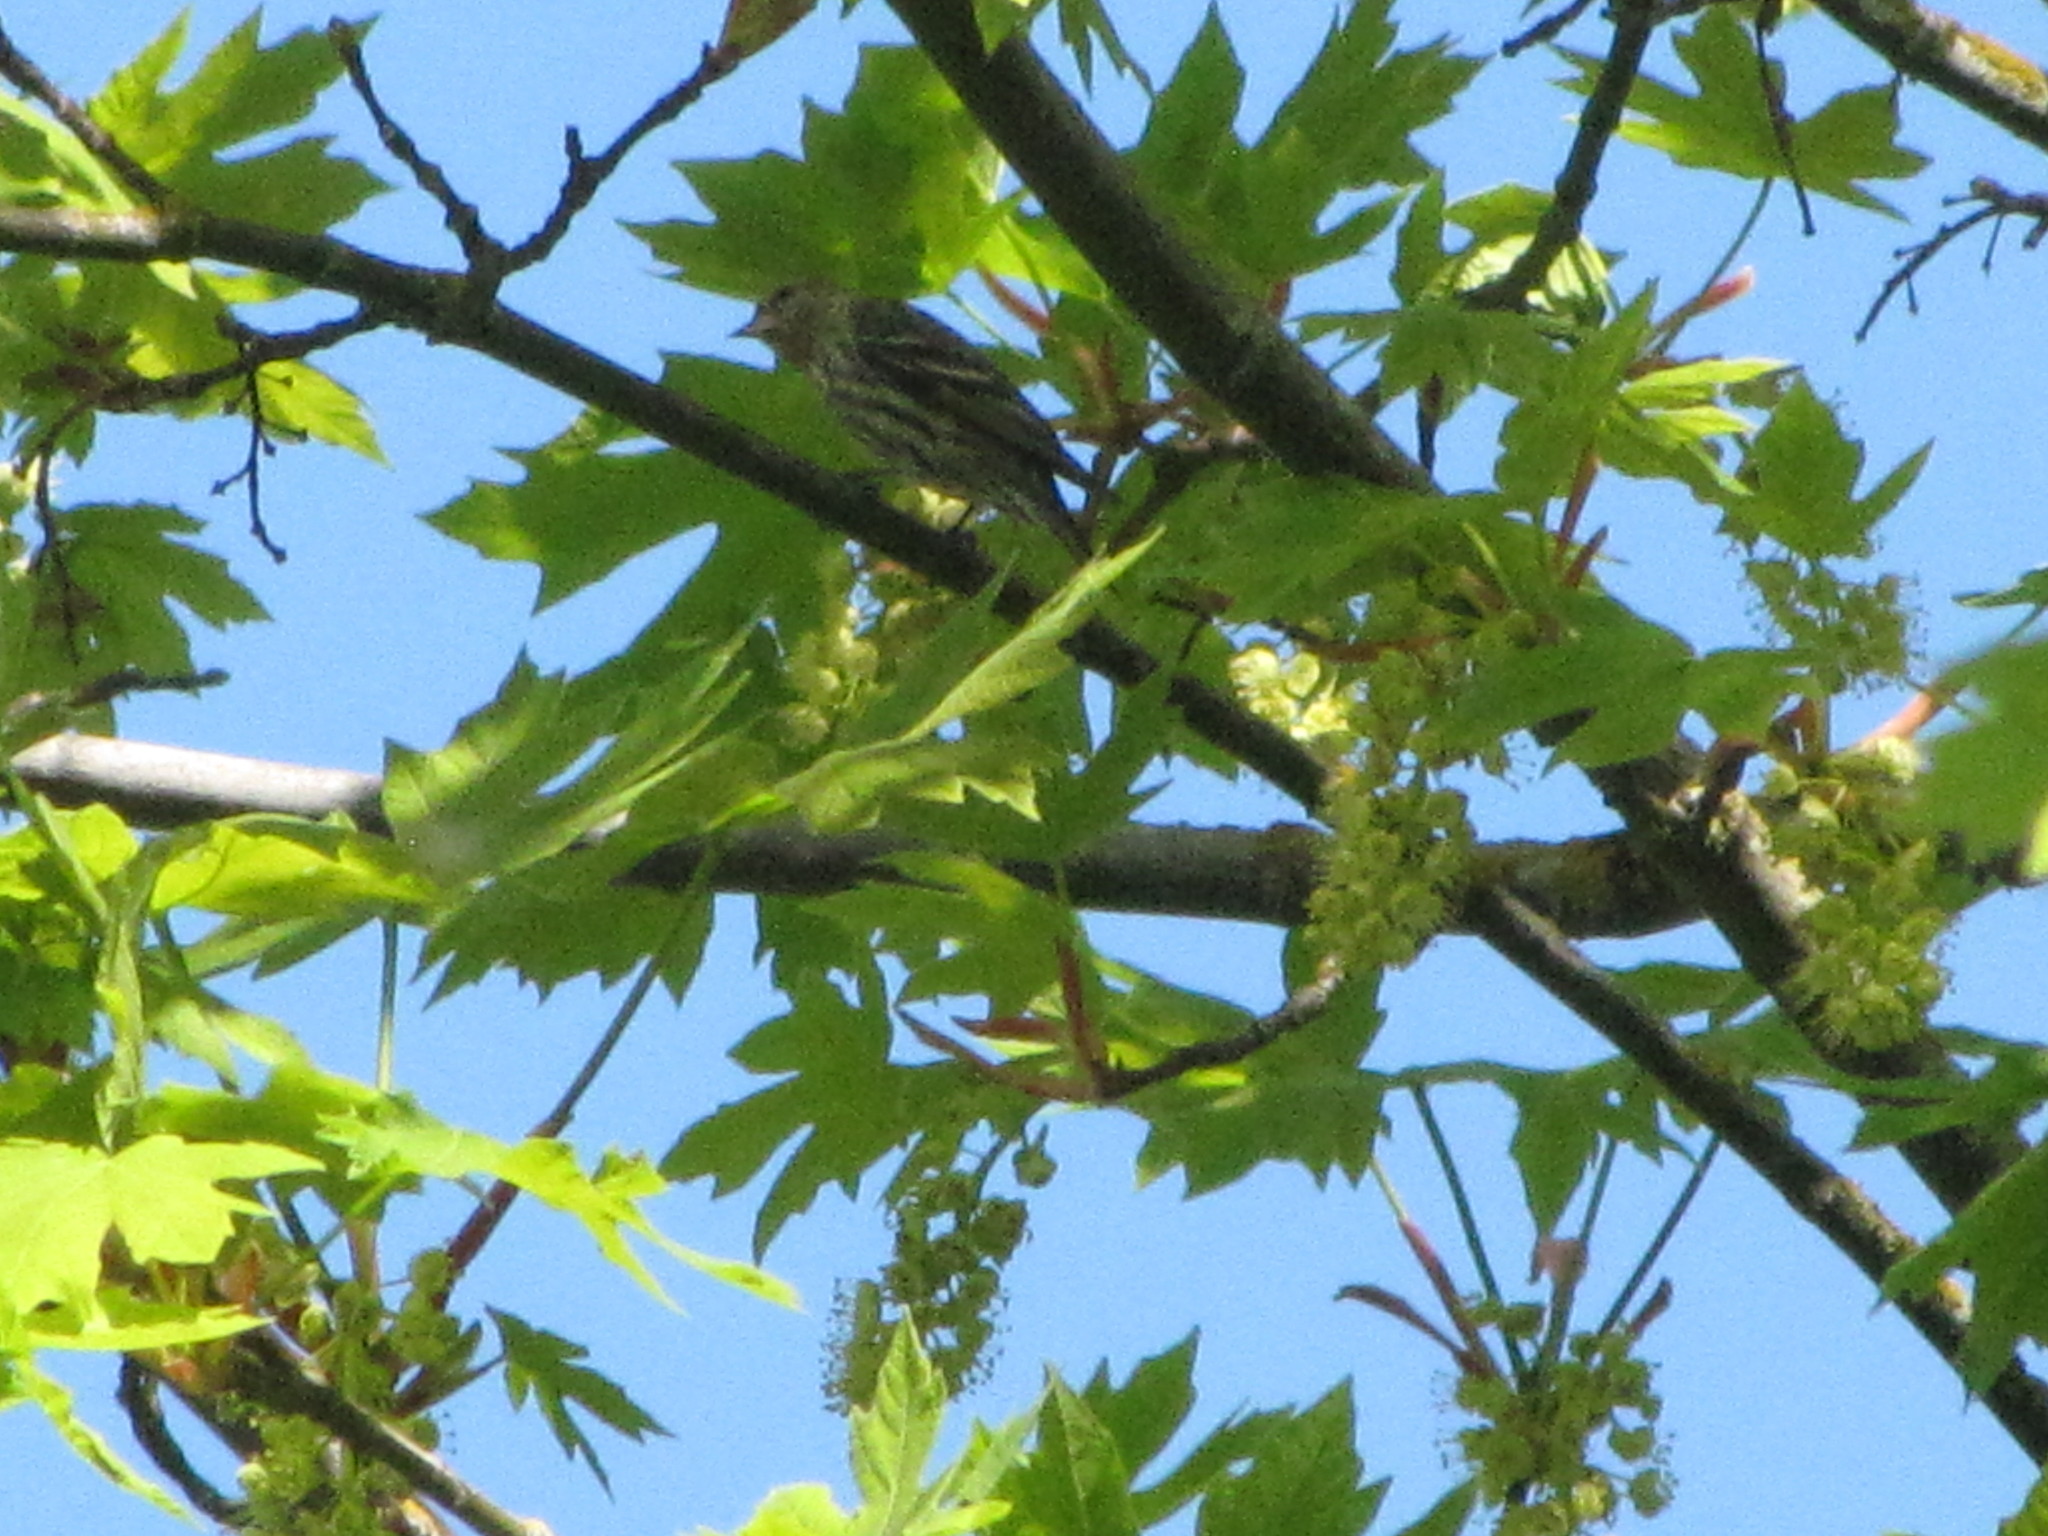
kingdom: Animalia
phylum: Chordata
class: Aves
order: Passeriformes
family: Fringillidae
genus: Spinus
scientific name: Spinus pinus
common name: Pine siskin
